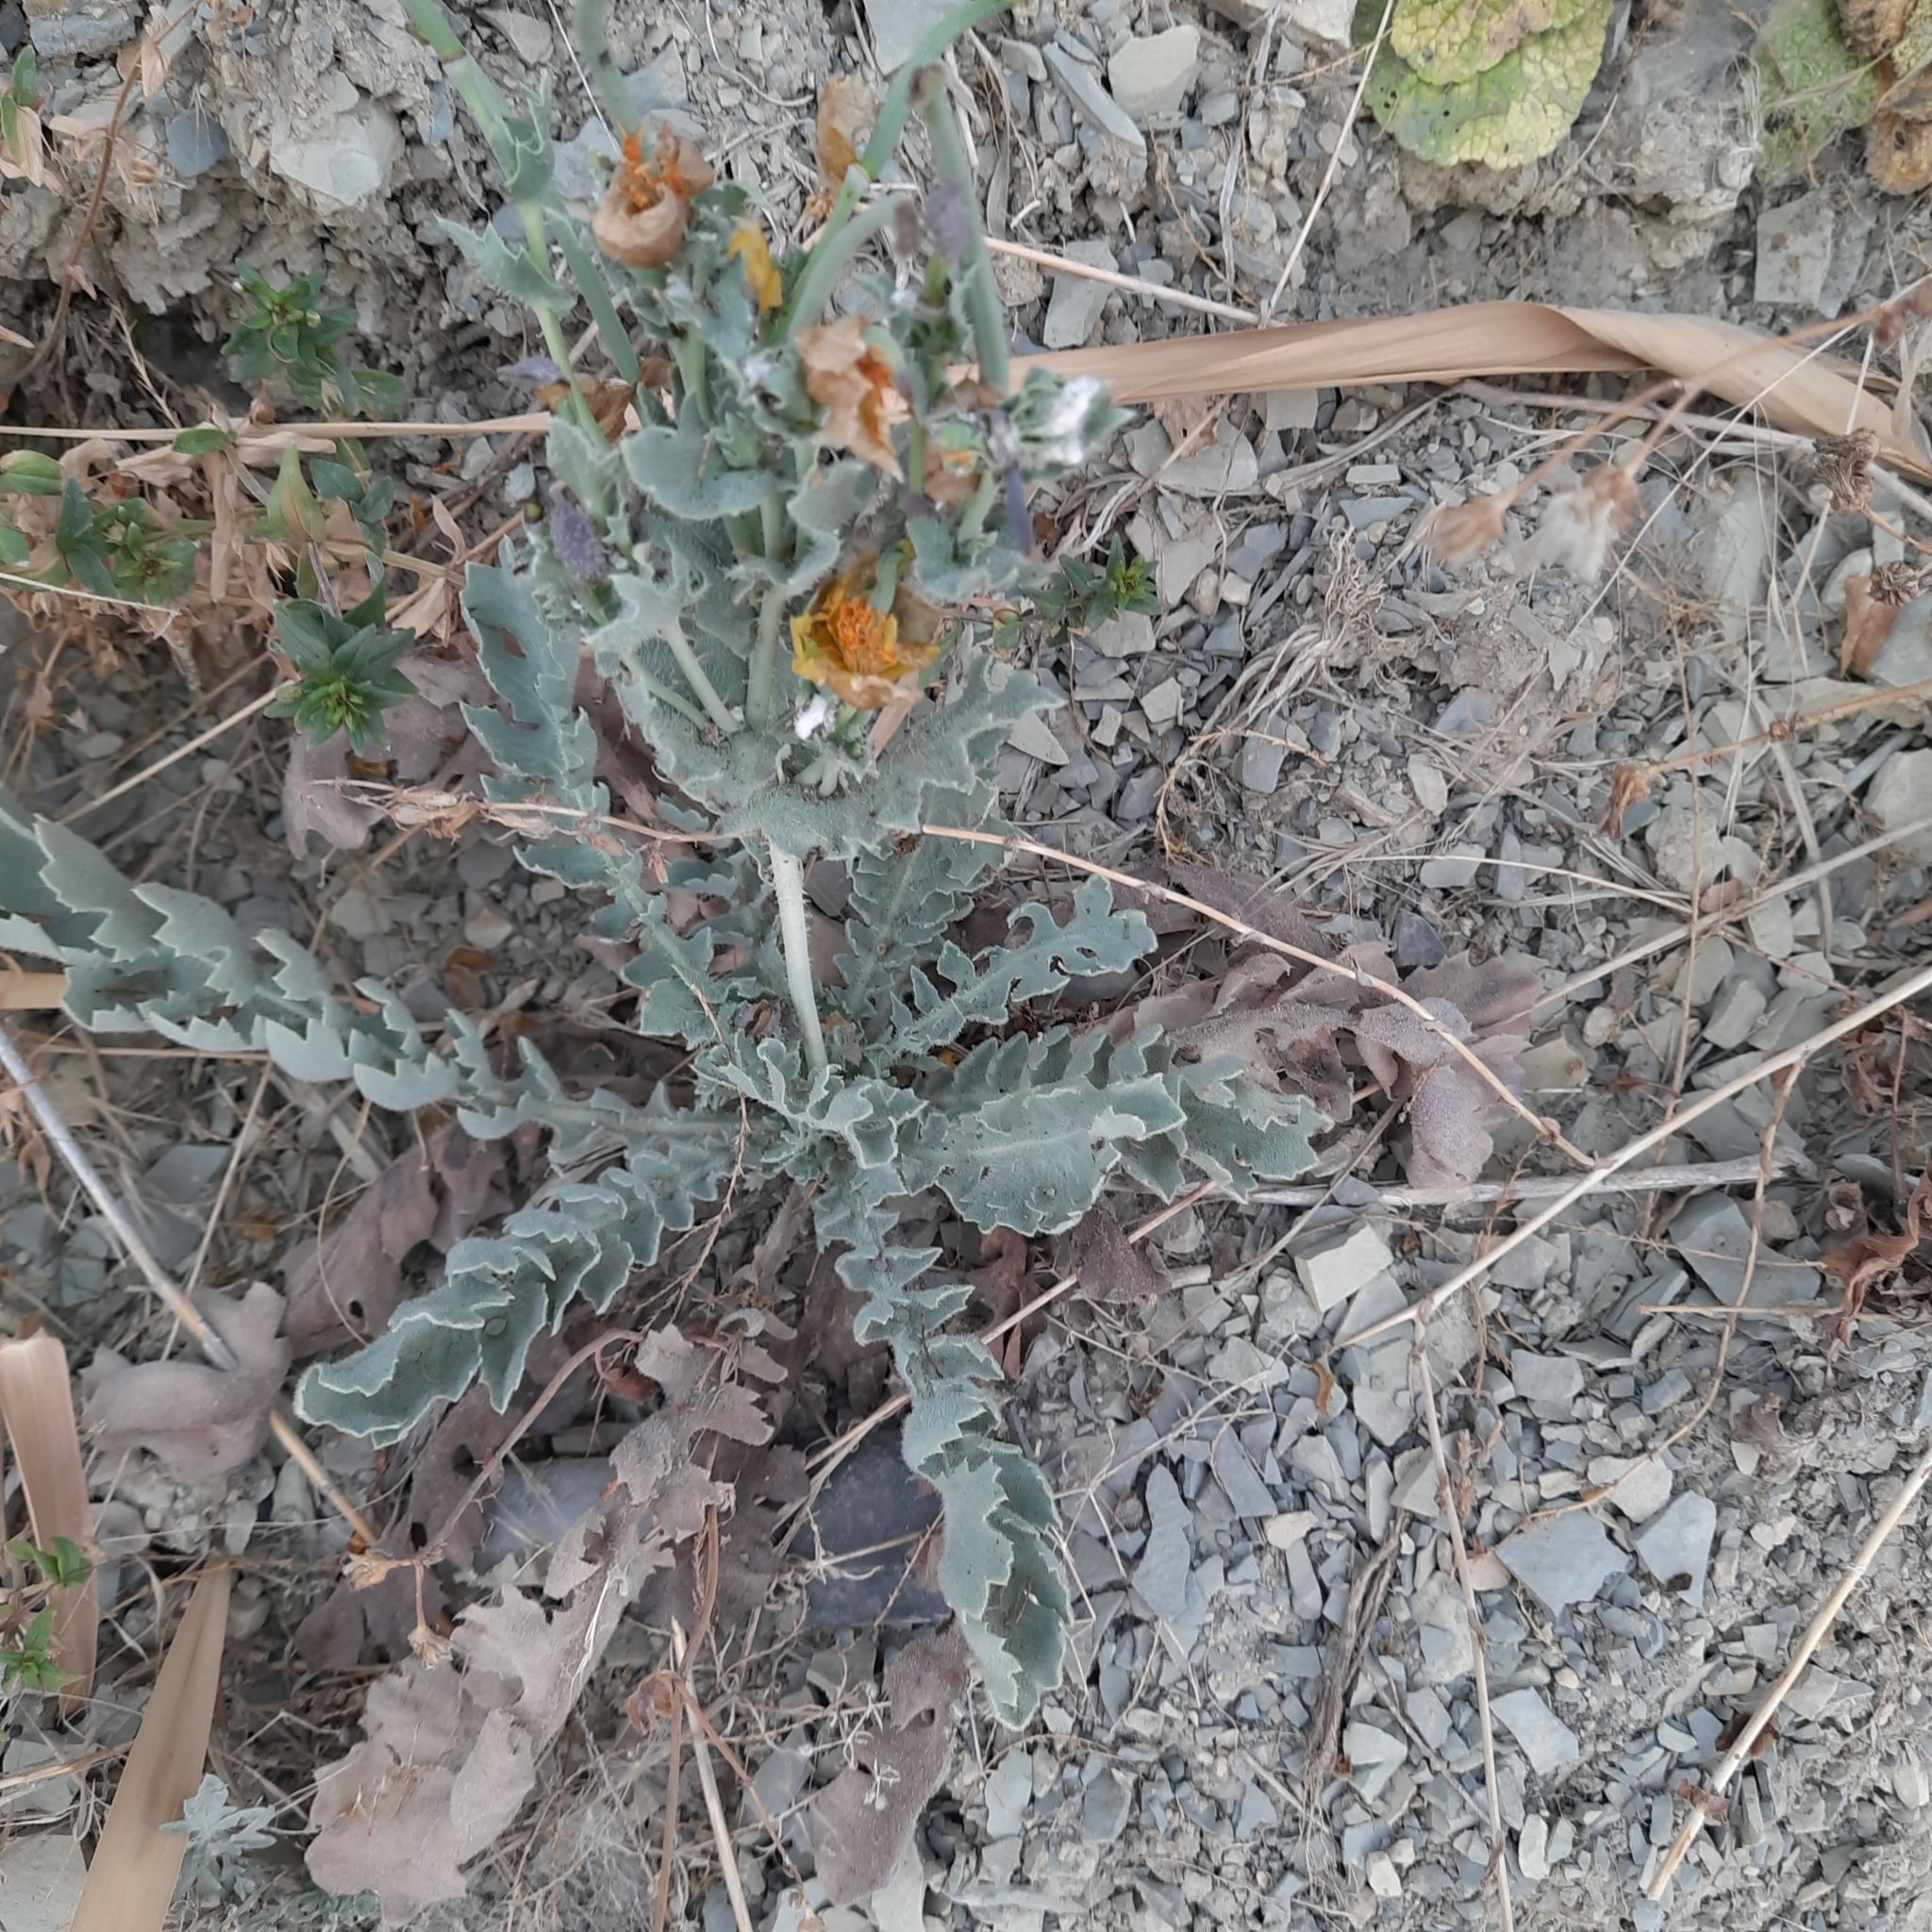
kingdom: Plantae
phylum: Tracheophyta
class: Magnoliopsida
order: Ranunculales
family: Papaveraceae
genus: Glaucium
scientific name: Glaucium flavum
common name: Yellow horned-poppy
